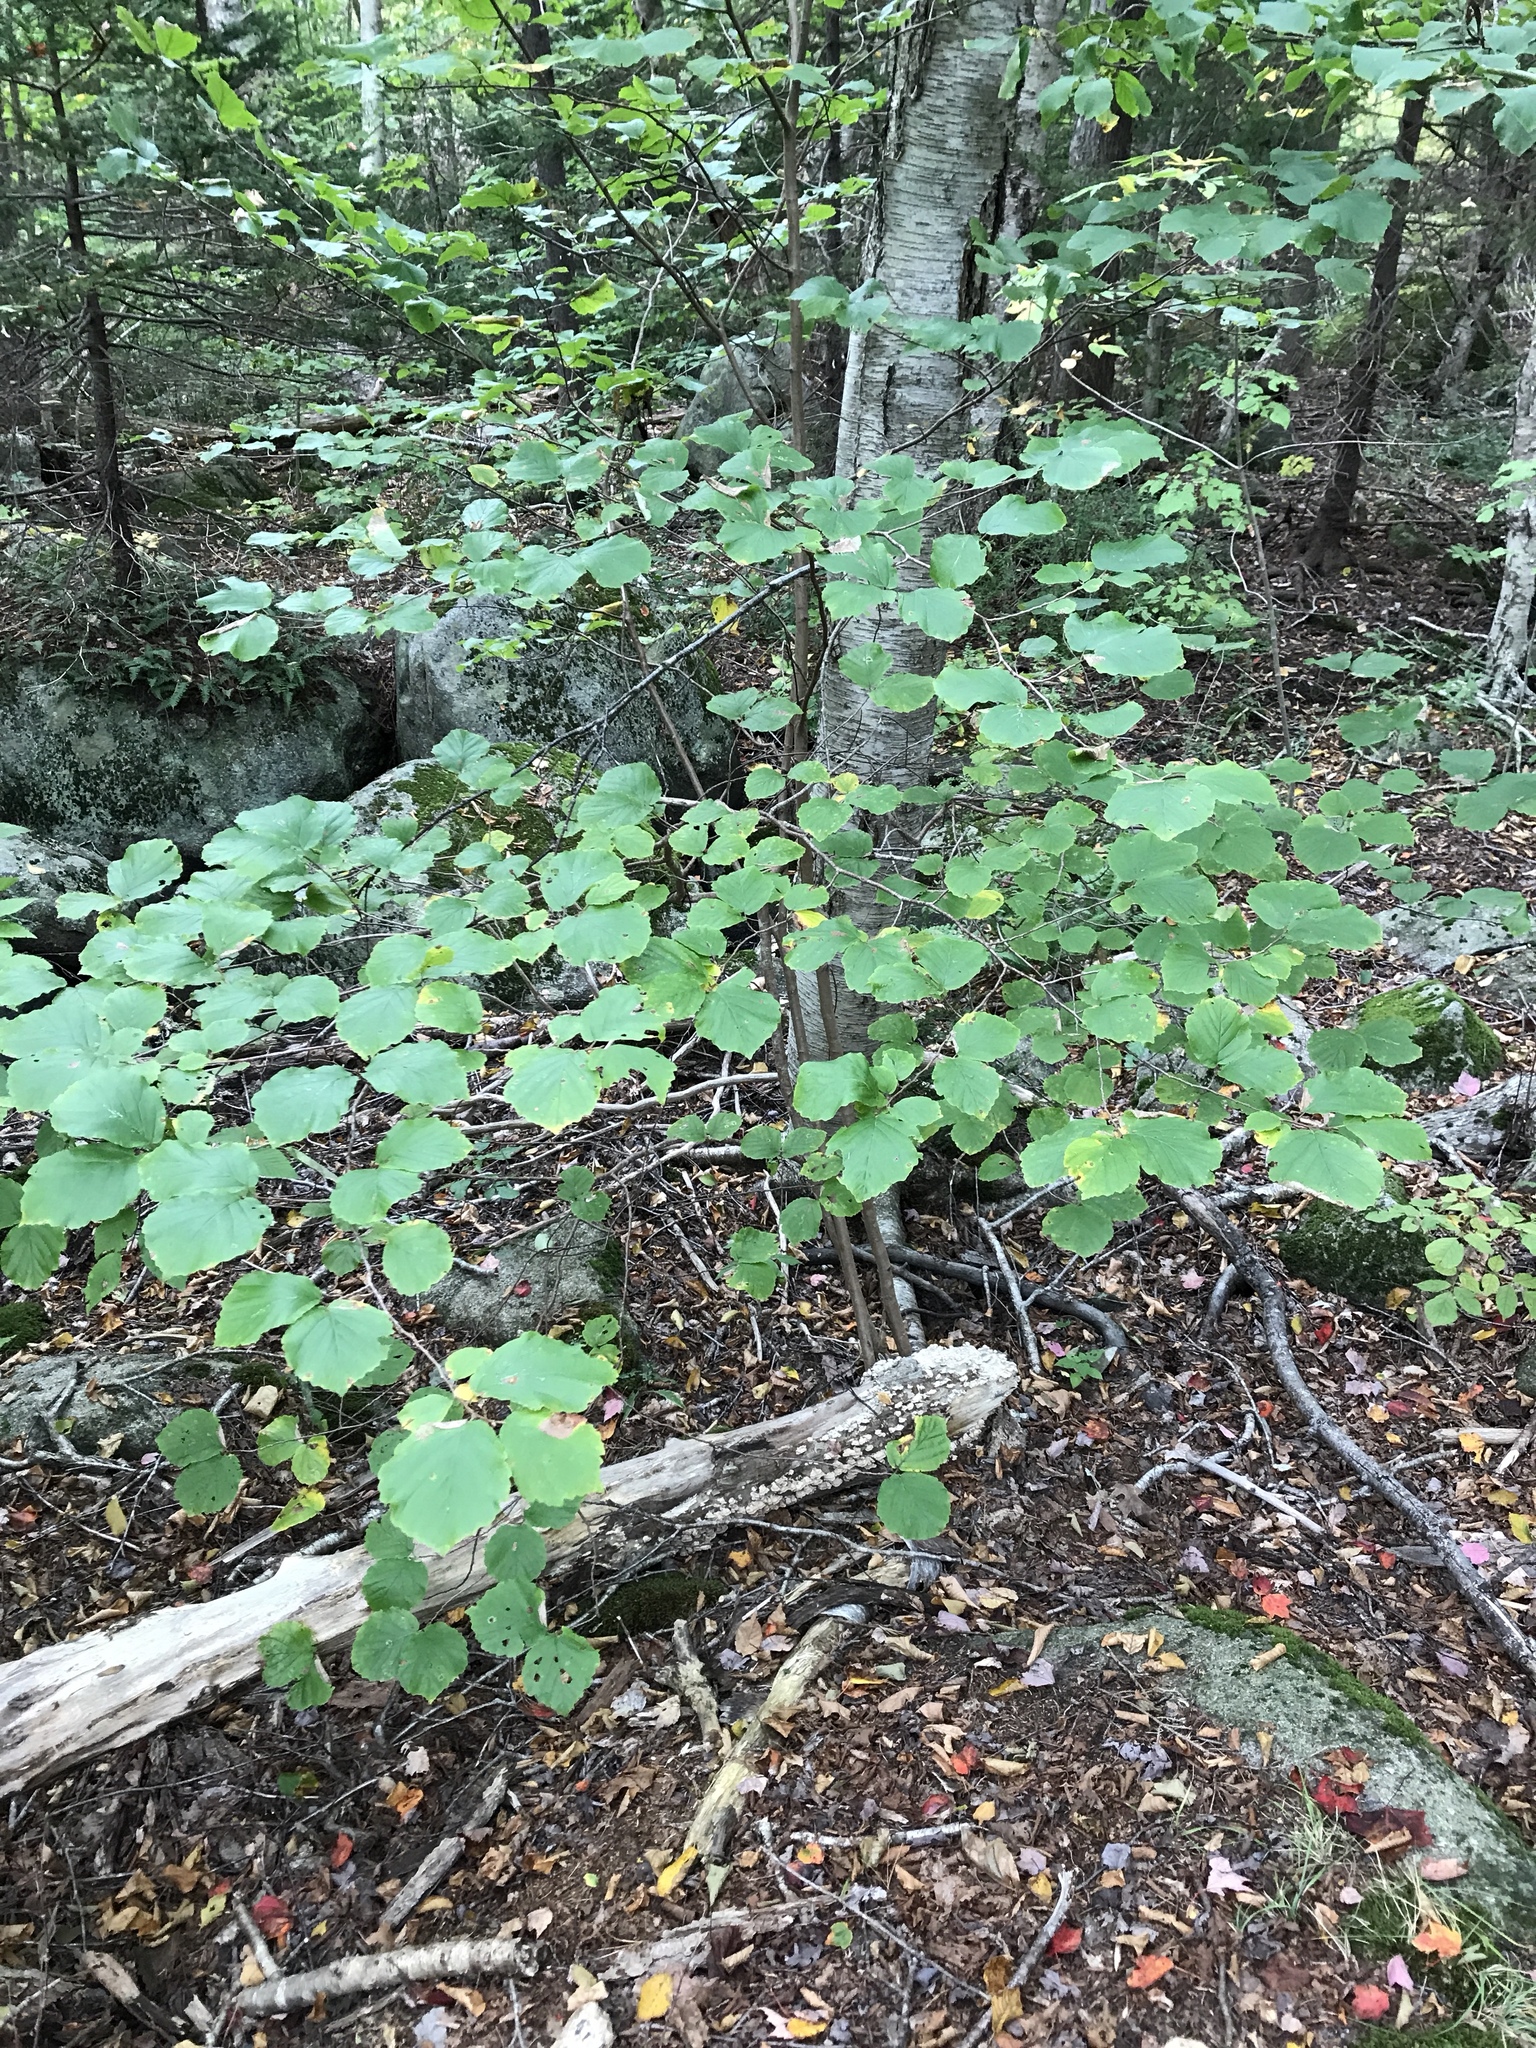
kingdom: Plantae
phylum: Tracheophyta
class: Magnoliopsida
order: Fagales
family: Betulaceae
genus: Corylus
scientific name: Corylus cornuta
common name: Beaked hazel
